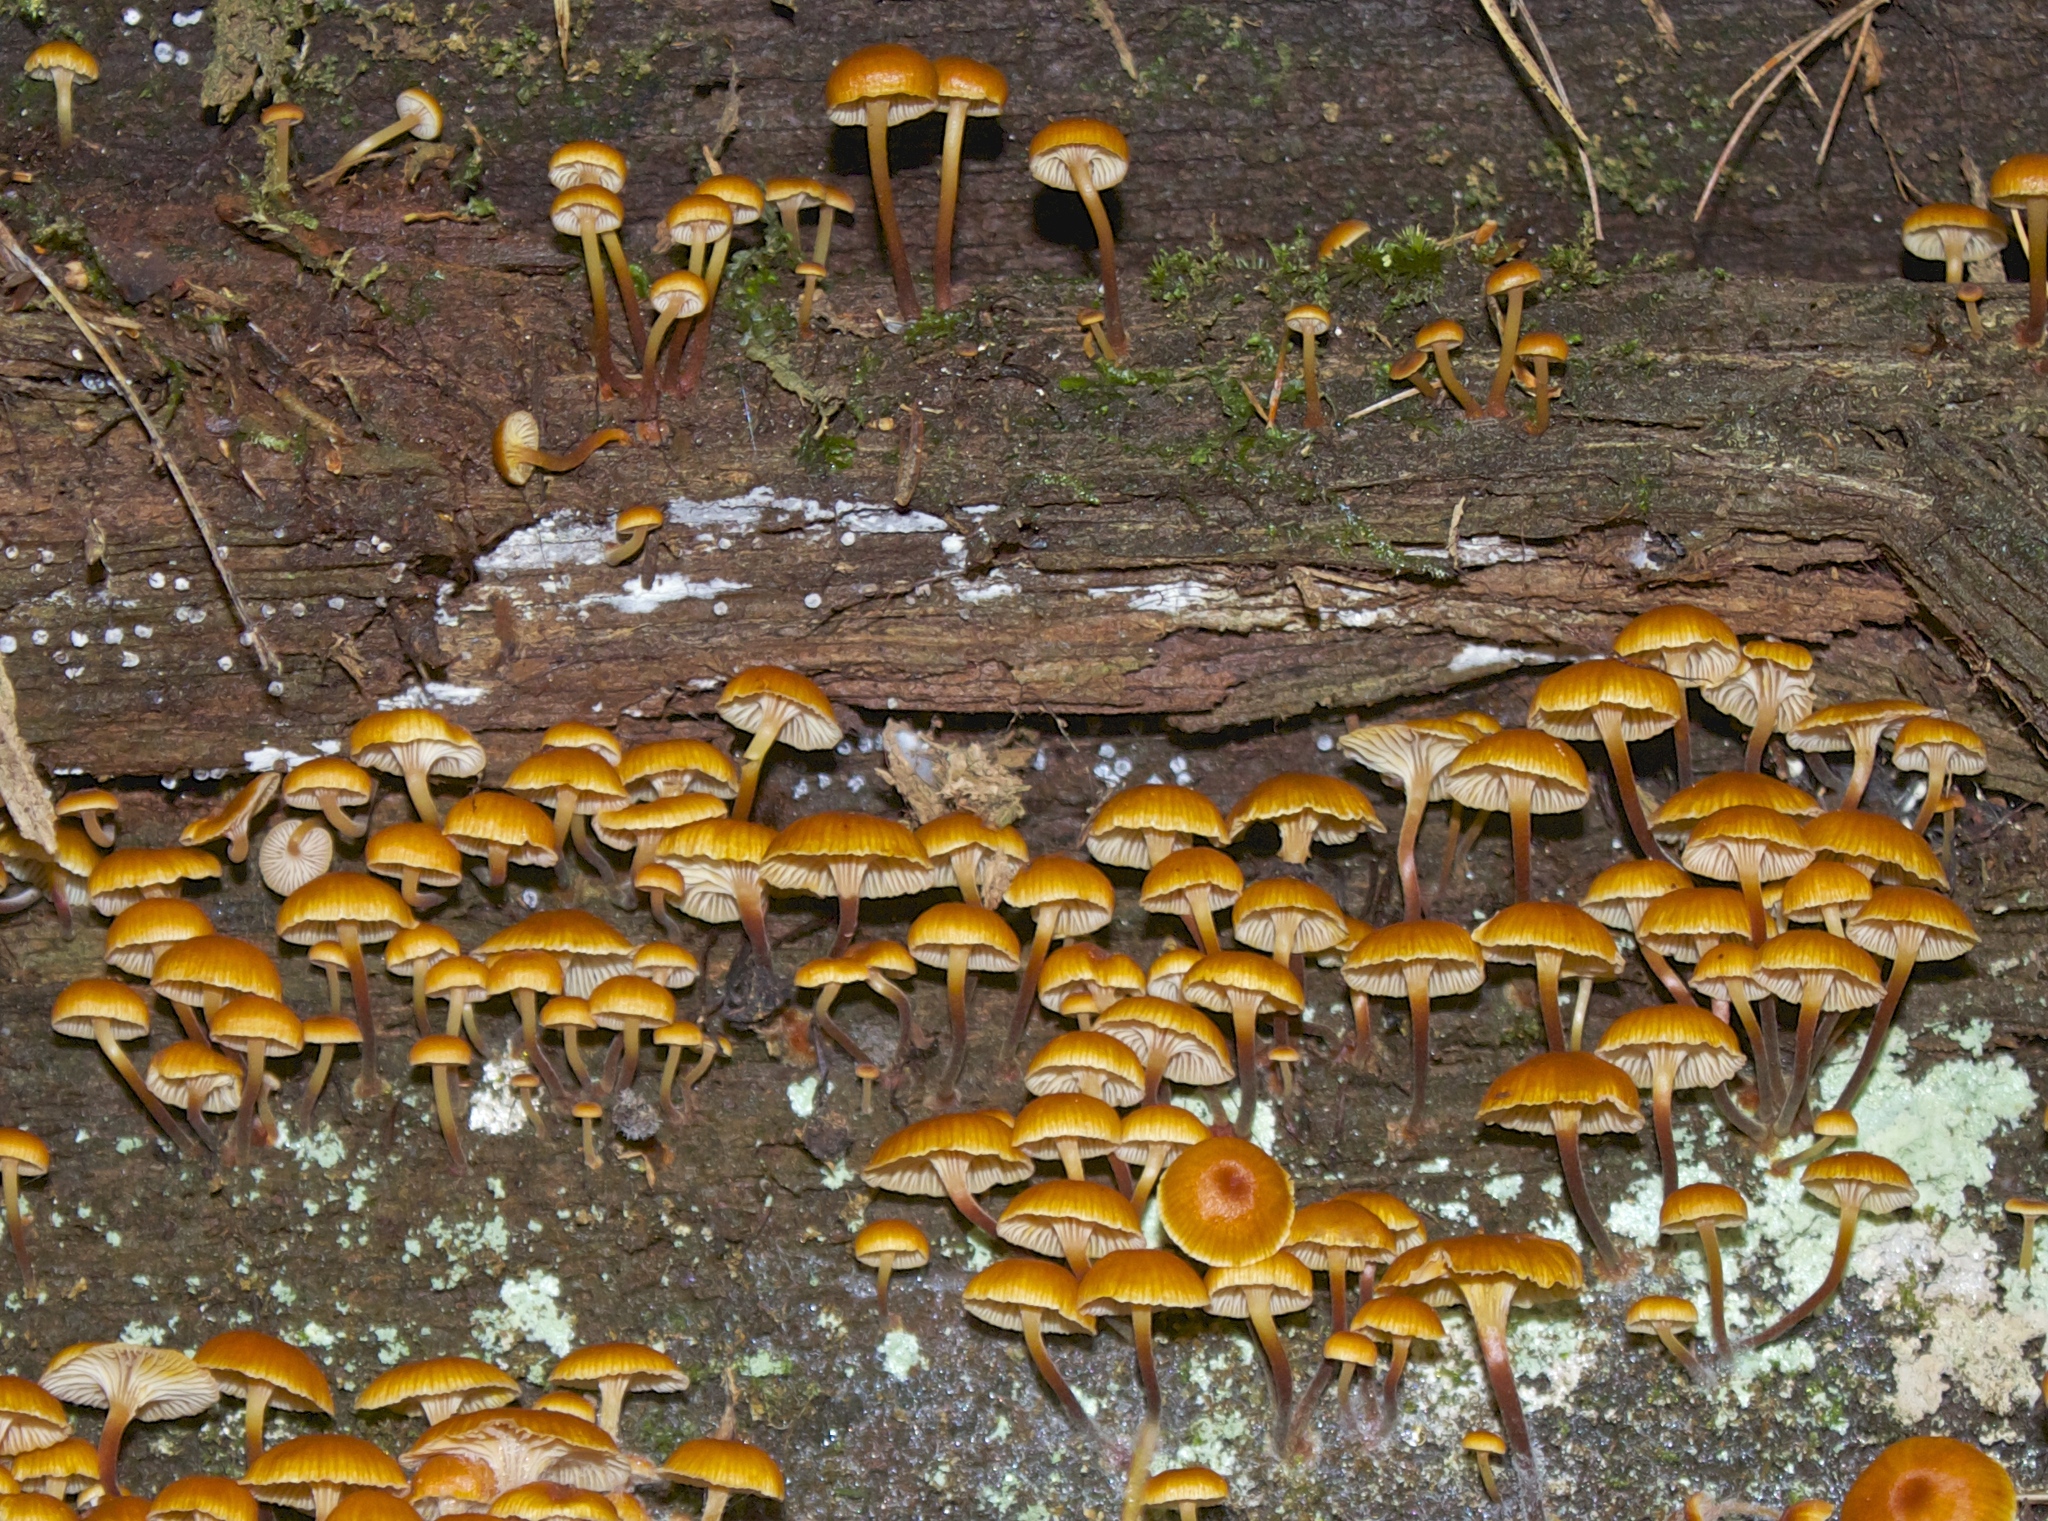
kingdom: Fungi
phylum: Basidiomycota
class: Agaricomycetes
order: Agaricales
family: Mycenaceae
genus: Xeromphalina
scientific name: Xeromphalina campanella
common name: Pinewood gingertail
